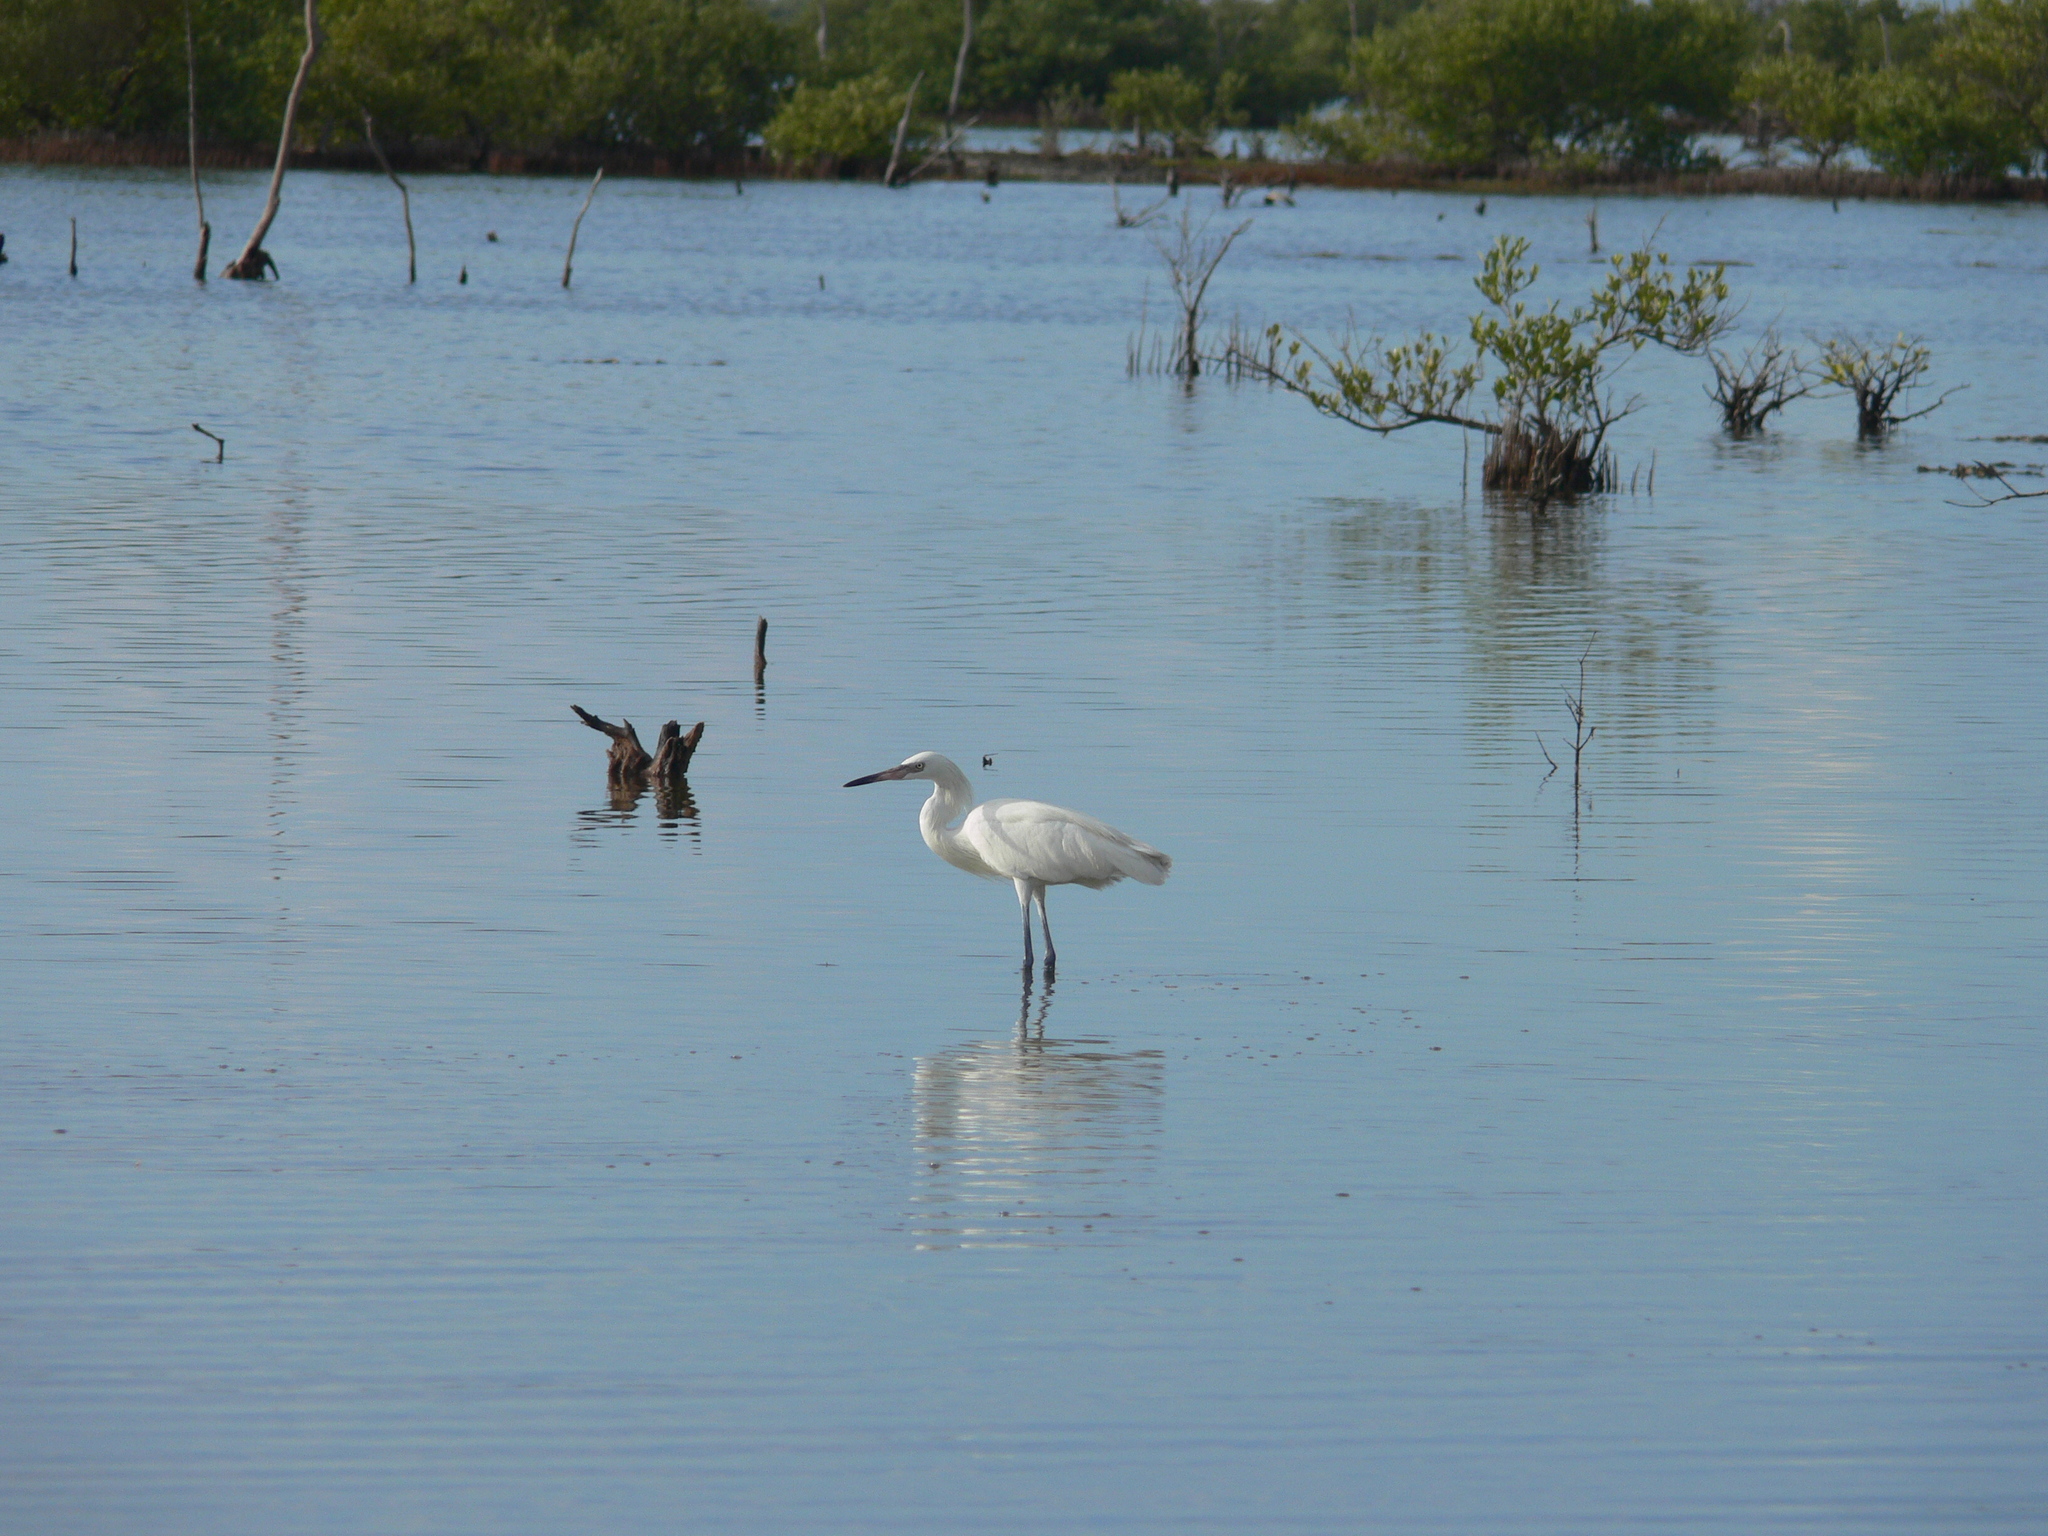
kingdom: Animalia
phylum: Chordata
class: Aves
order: Pelecaniformes
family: Ardeidae
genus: Egretta
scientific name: Egretta rufescens
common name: Reddish egret
